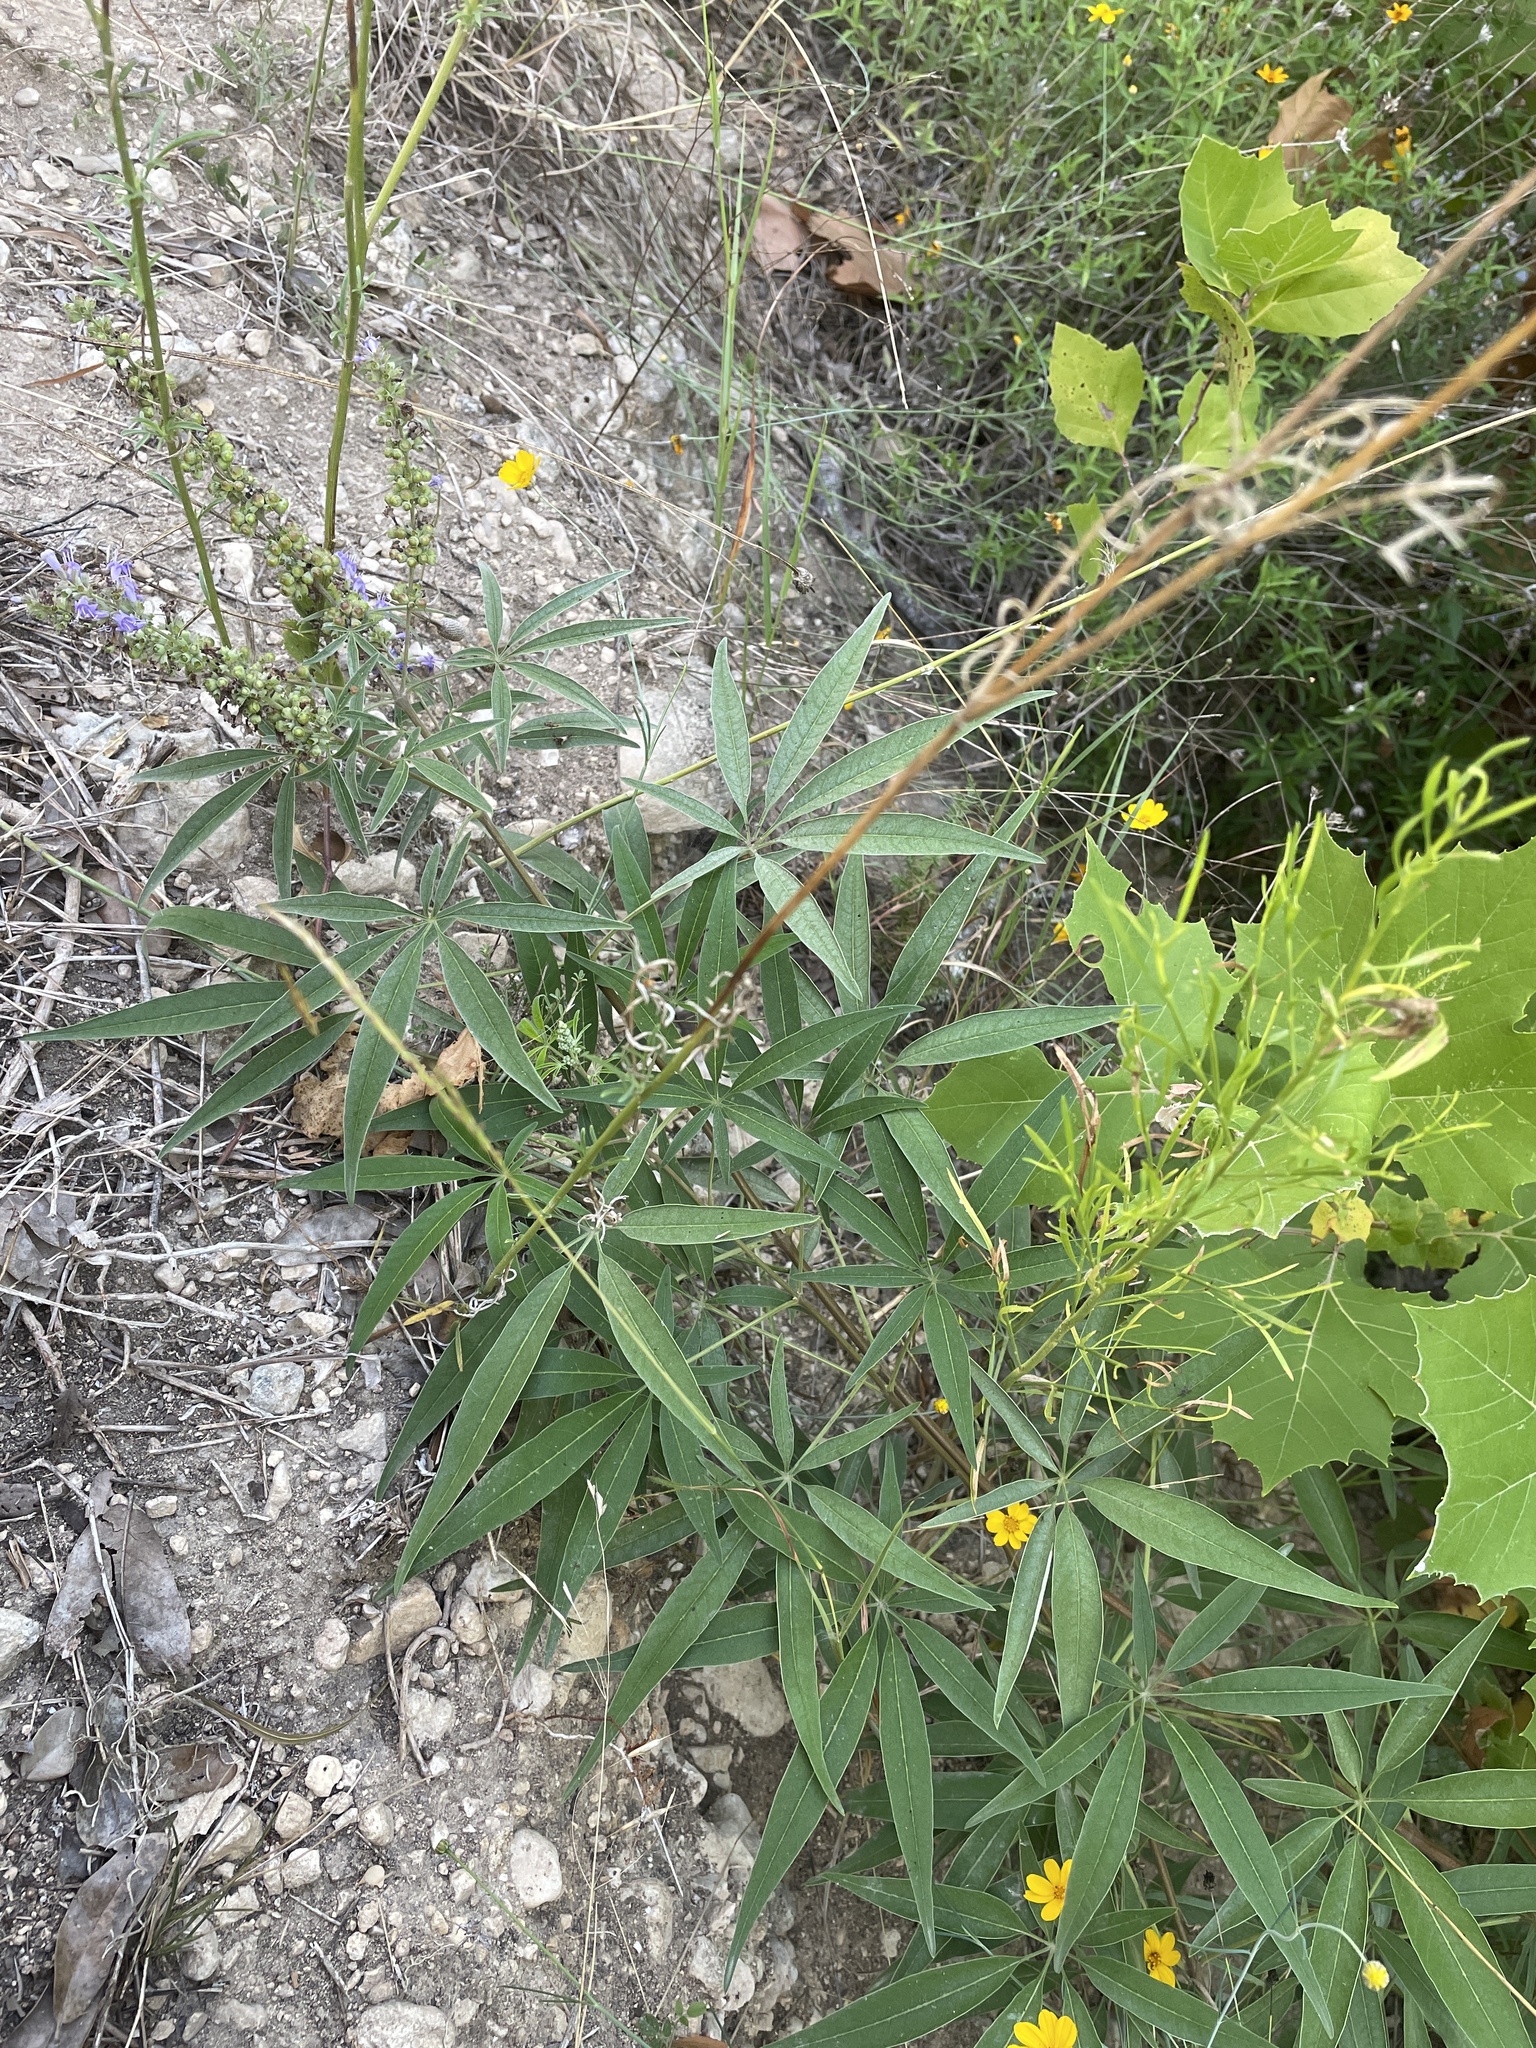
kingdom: Plantae
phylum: Tracheophyta
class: Magnoliopsida
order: Lamiales
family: Lamiaceae
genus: Vitex
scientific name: Vitex agnus-castus
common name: Chasteberry
